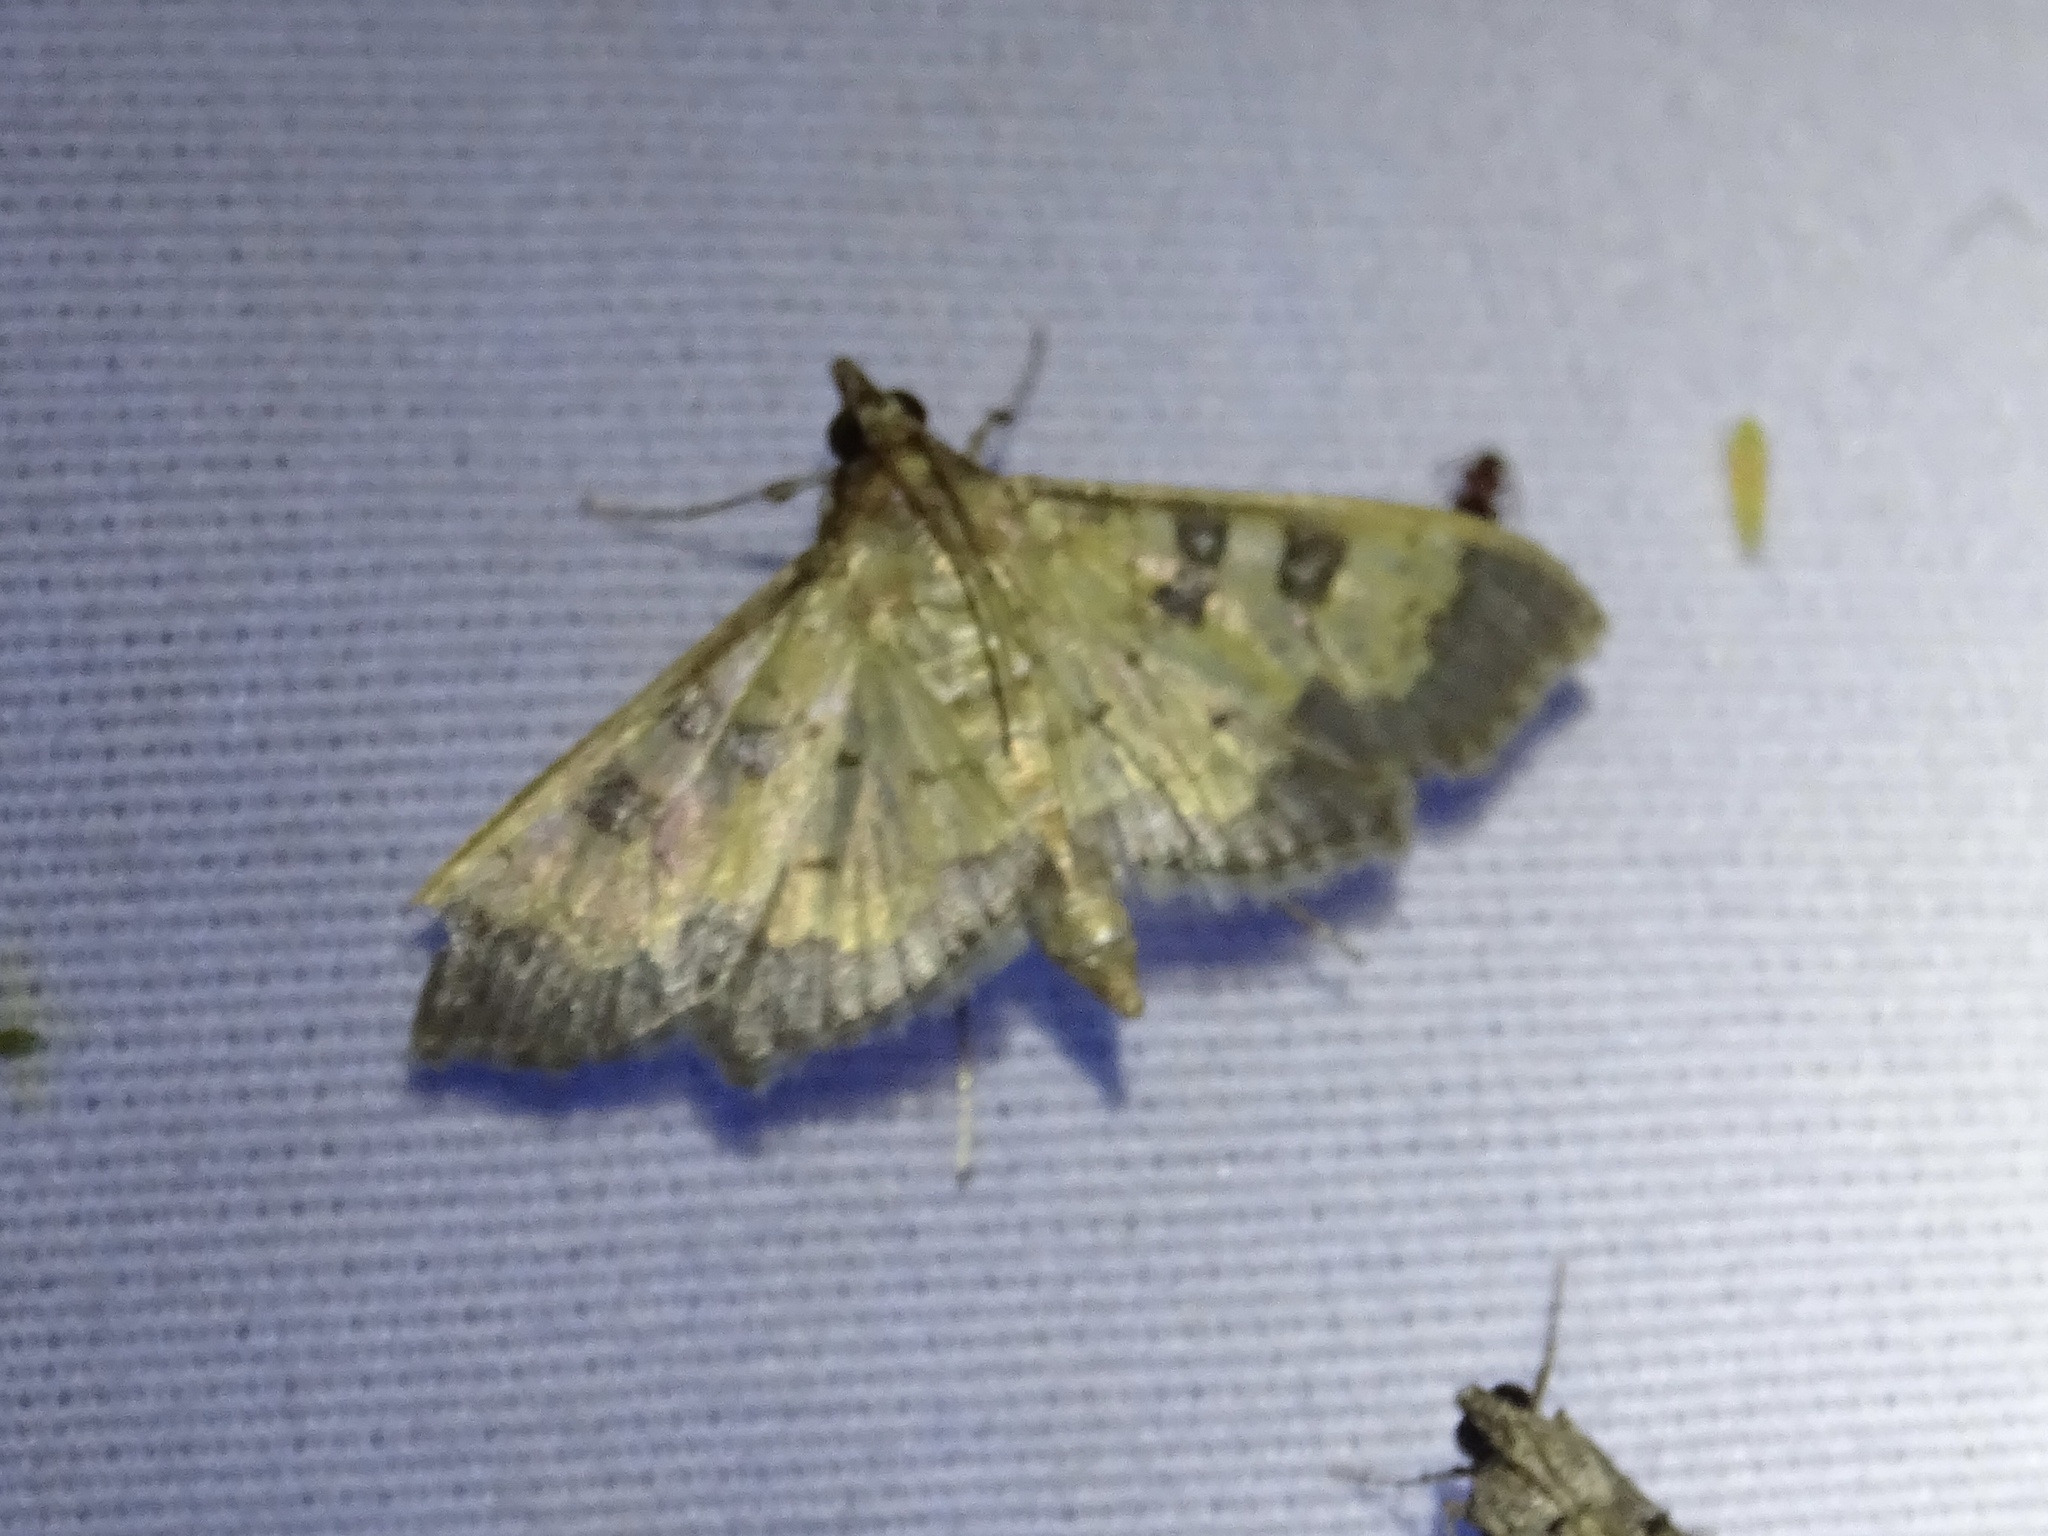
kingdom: Animalia
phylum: Arthropoda
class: Insecta
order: Lepidoptera
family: Crambidae
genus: Cryptographis
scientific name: Cryptographis elealis
